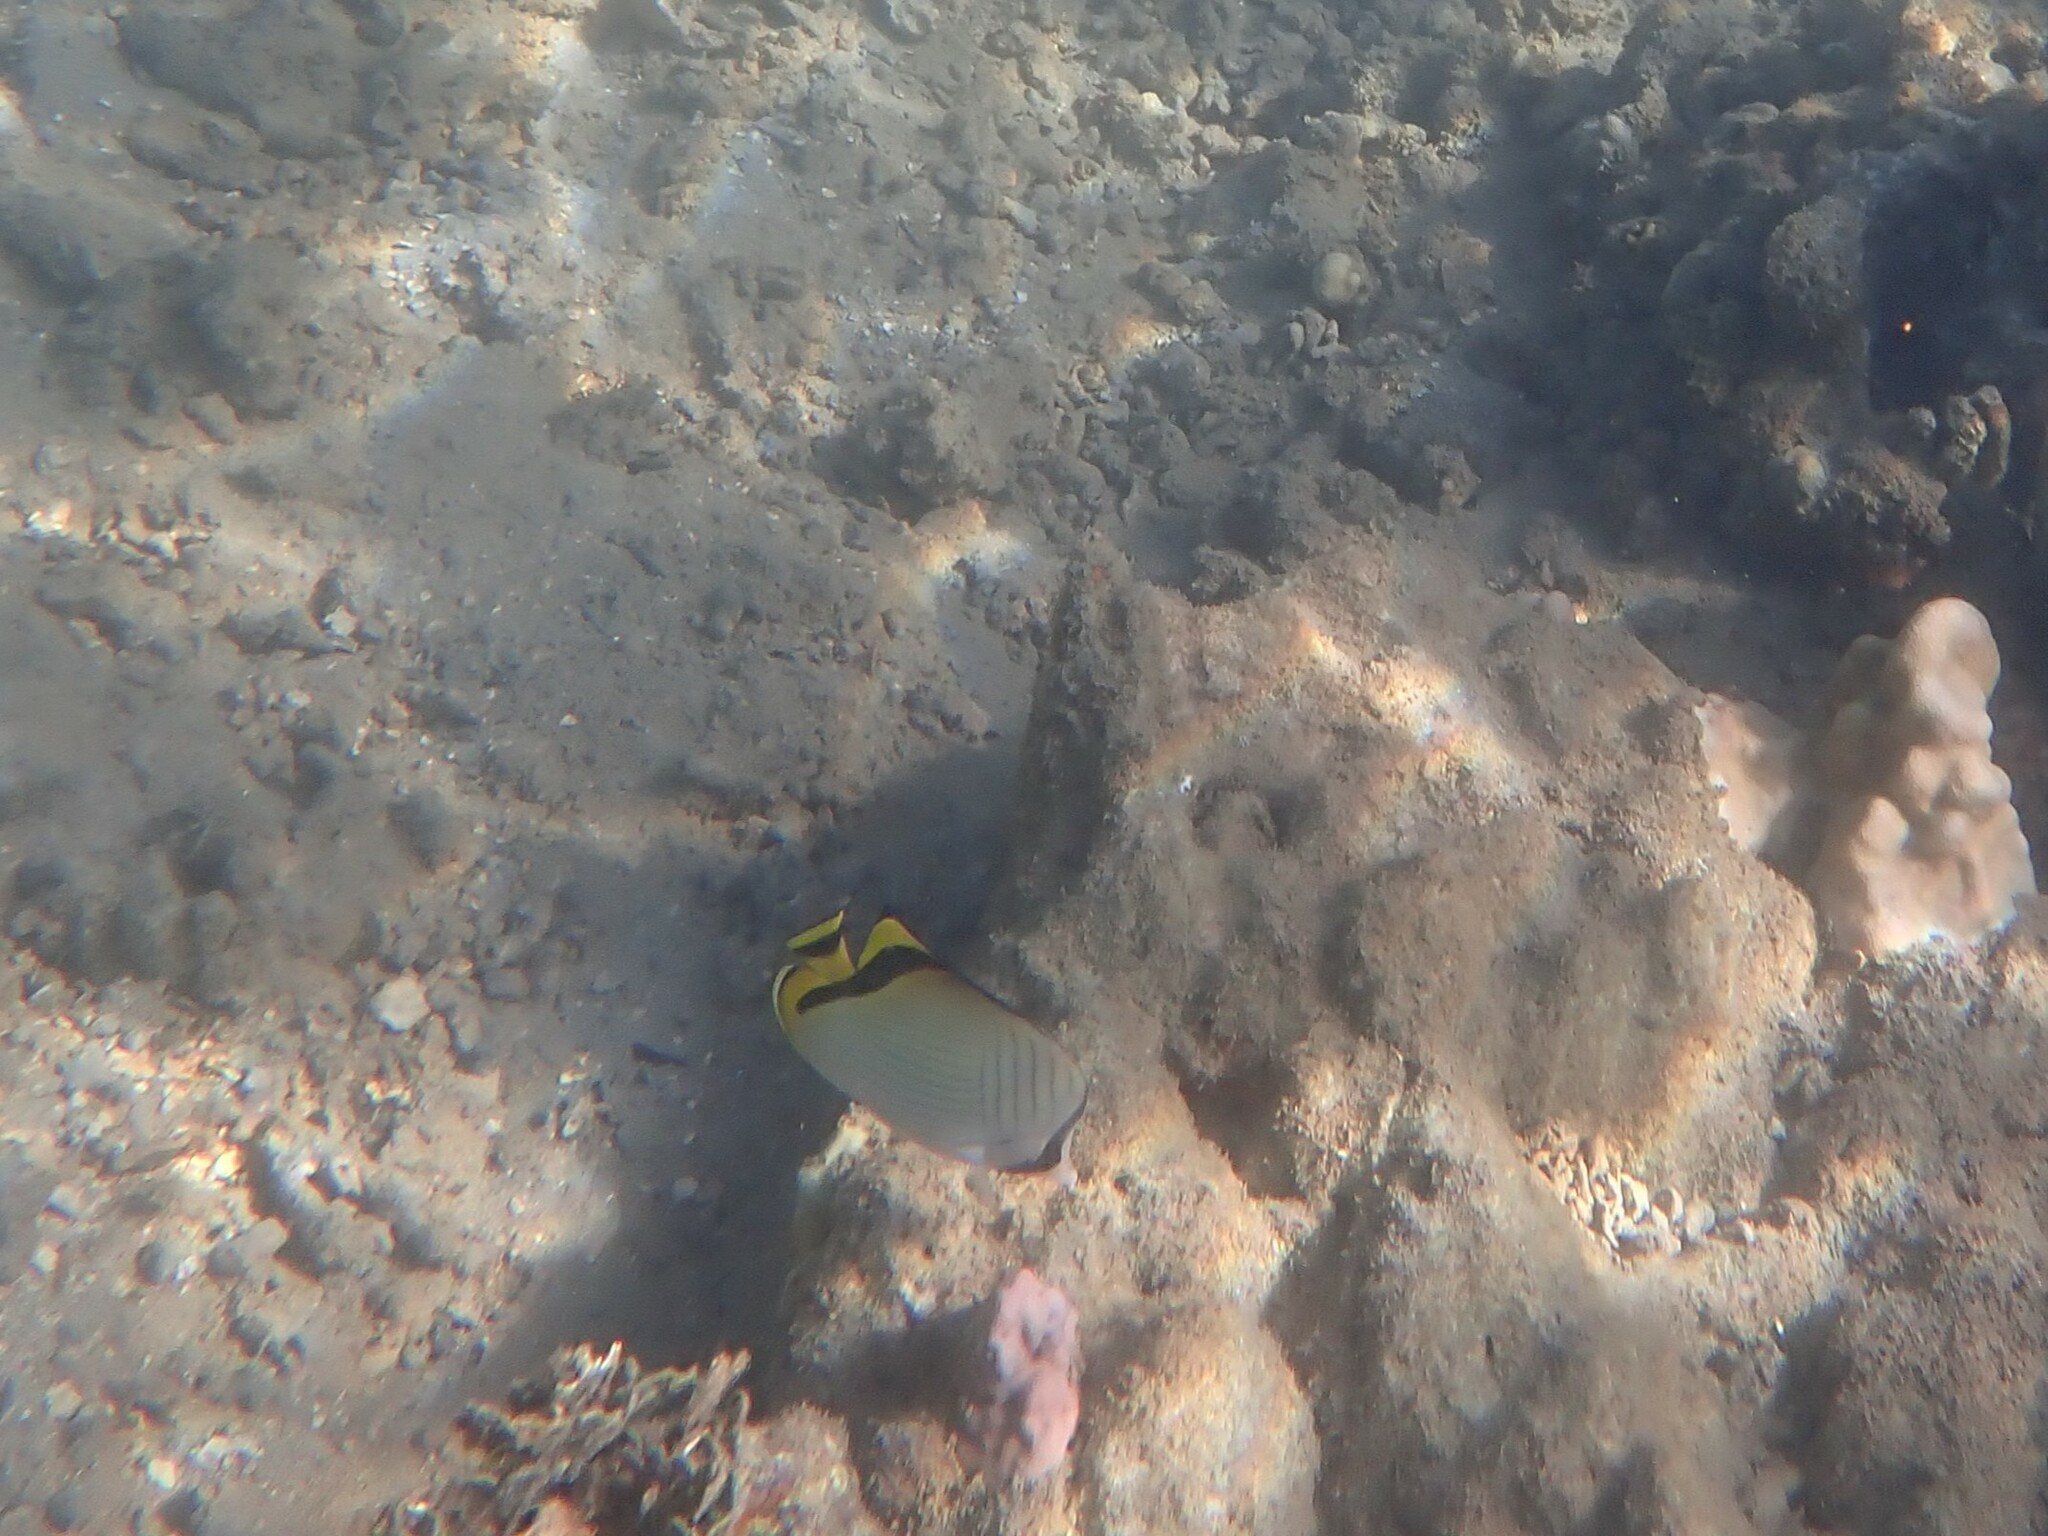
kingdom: Animalia
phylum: Chordata
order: Perciformes
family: Chaetodontidae
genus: Chaetodon
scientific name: Chaetodon vagabundus
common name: Vagabond butterflyfish
